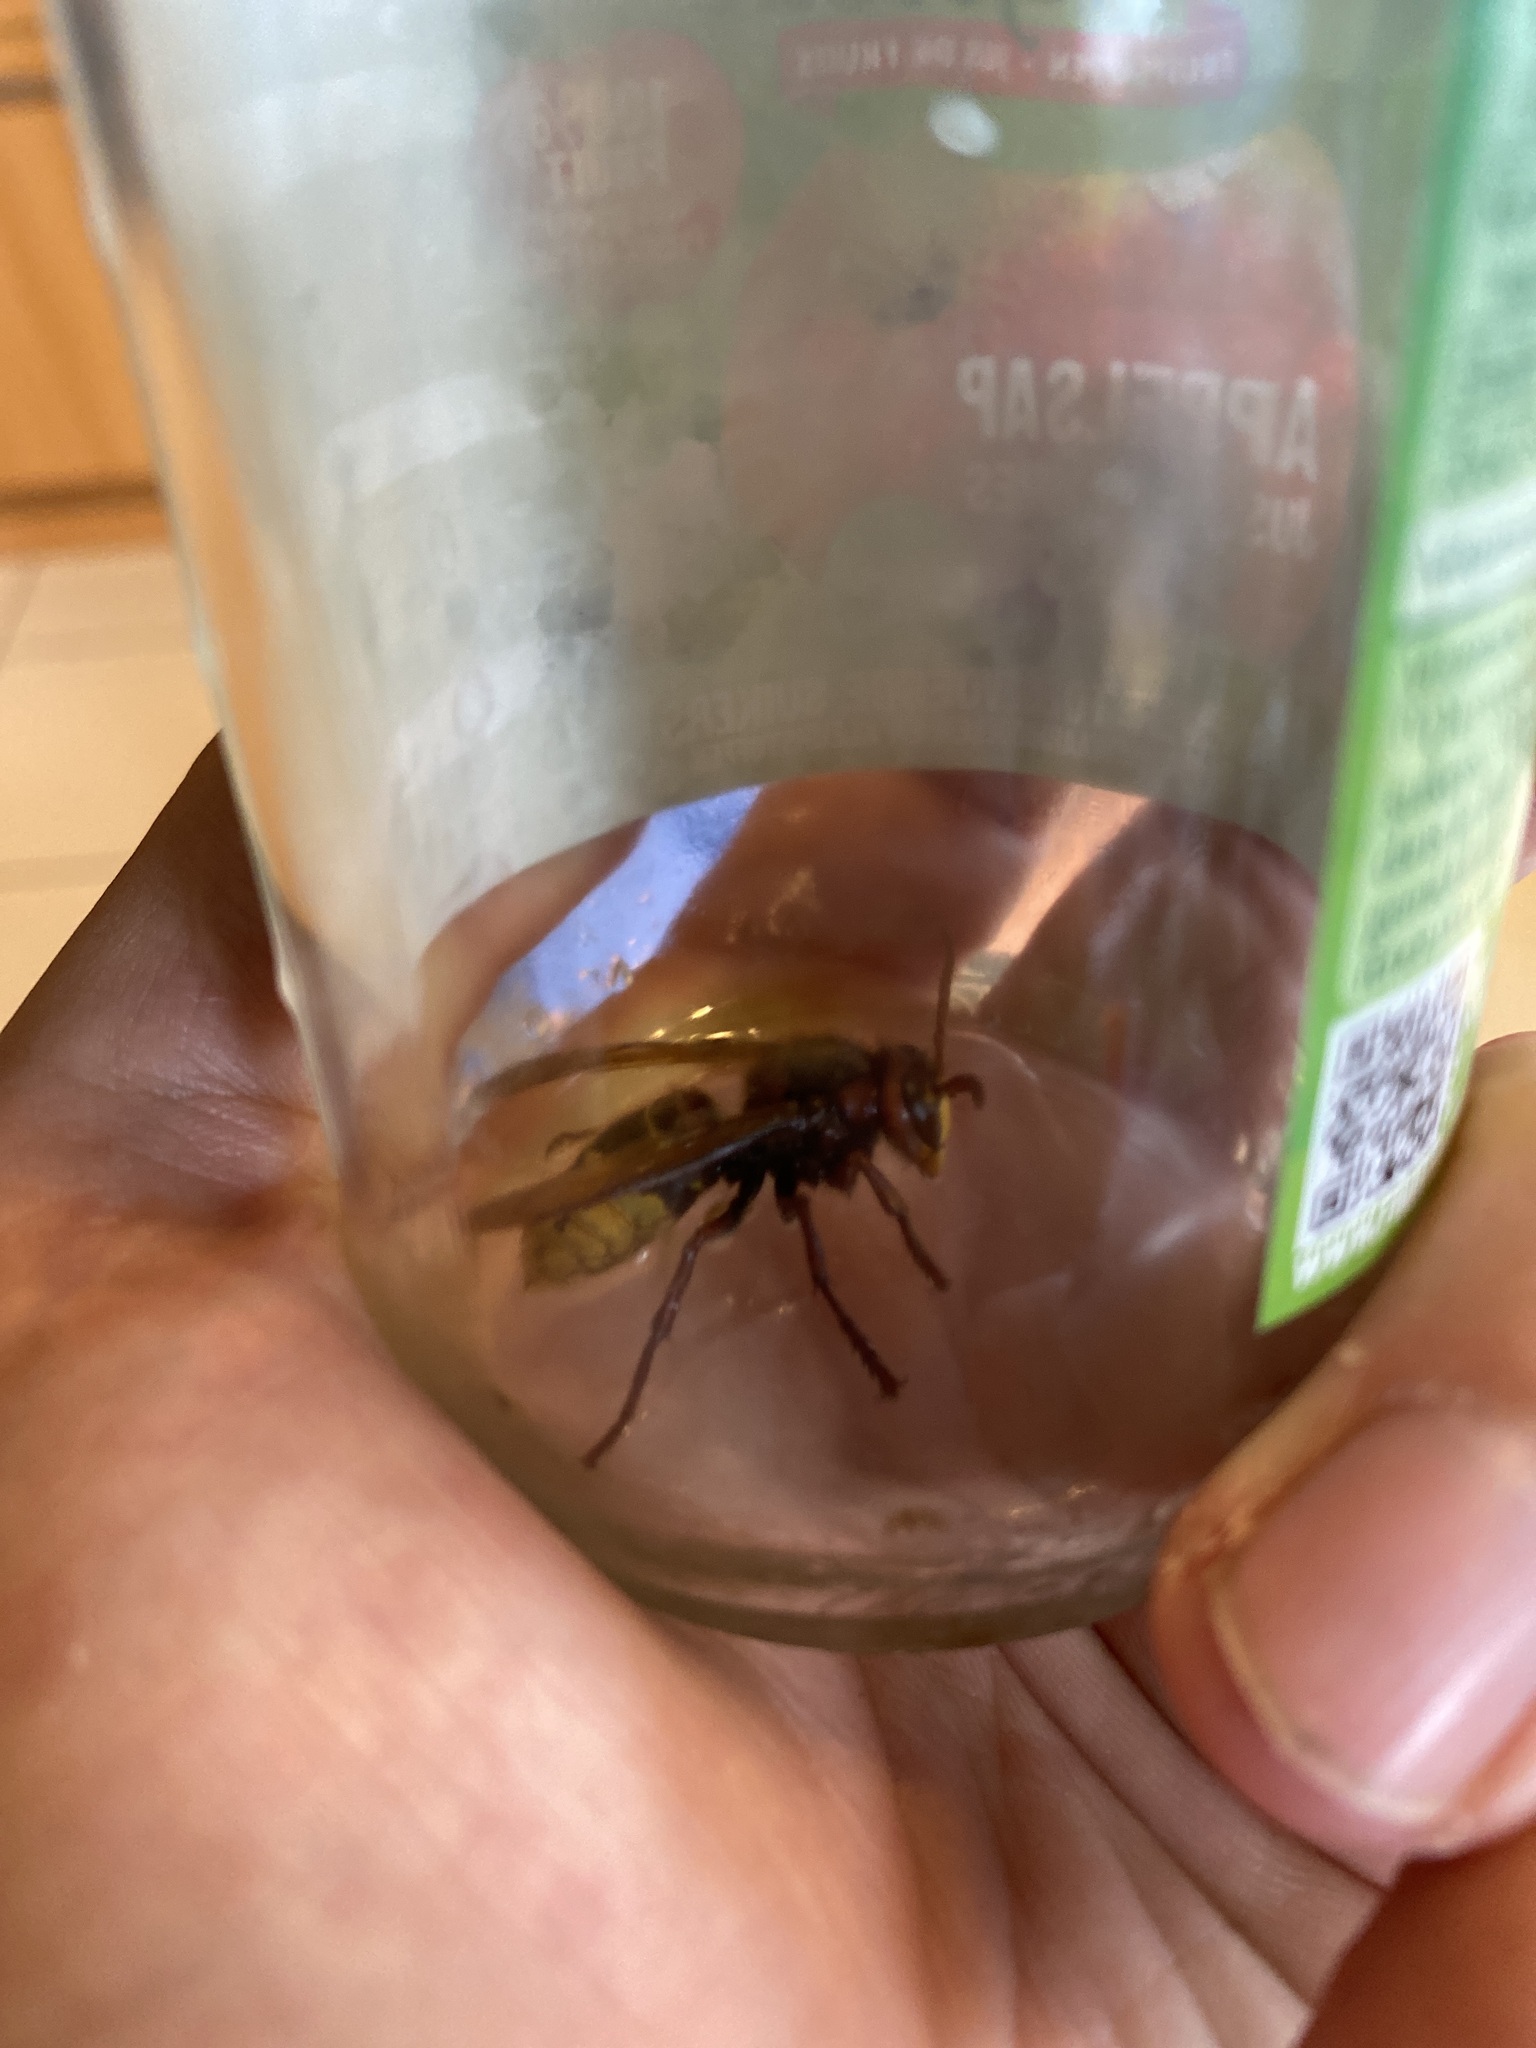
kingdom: Animalia
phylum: Arthropoda
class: Insecta
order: Hymenoptera
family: Vespidae
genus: Vespa
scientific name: Vespa crabro
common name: Hornet
